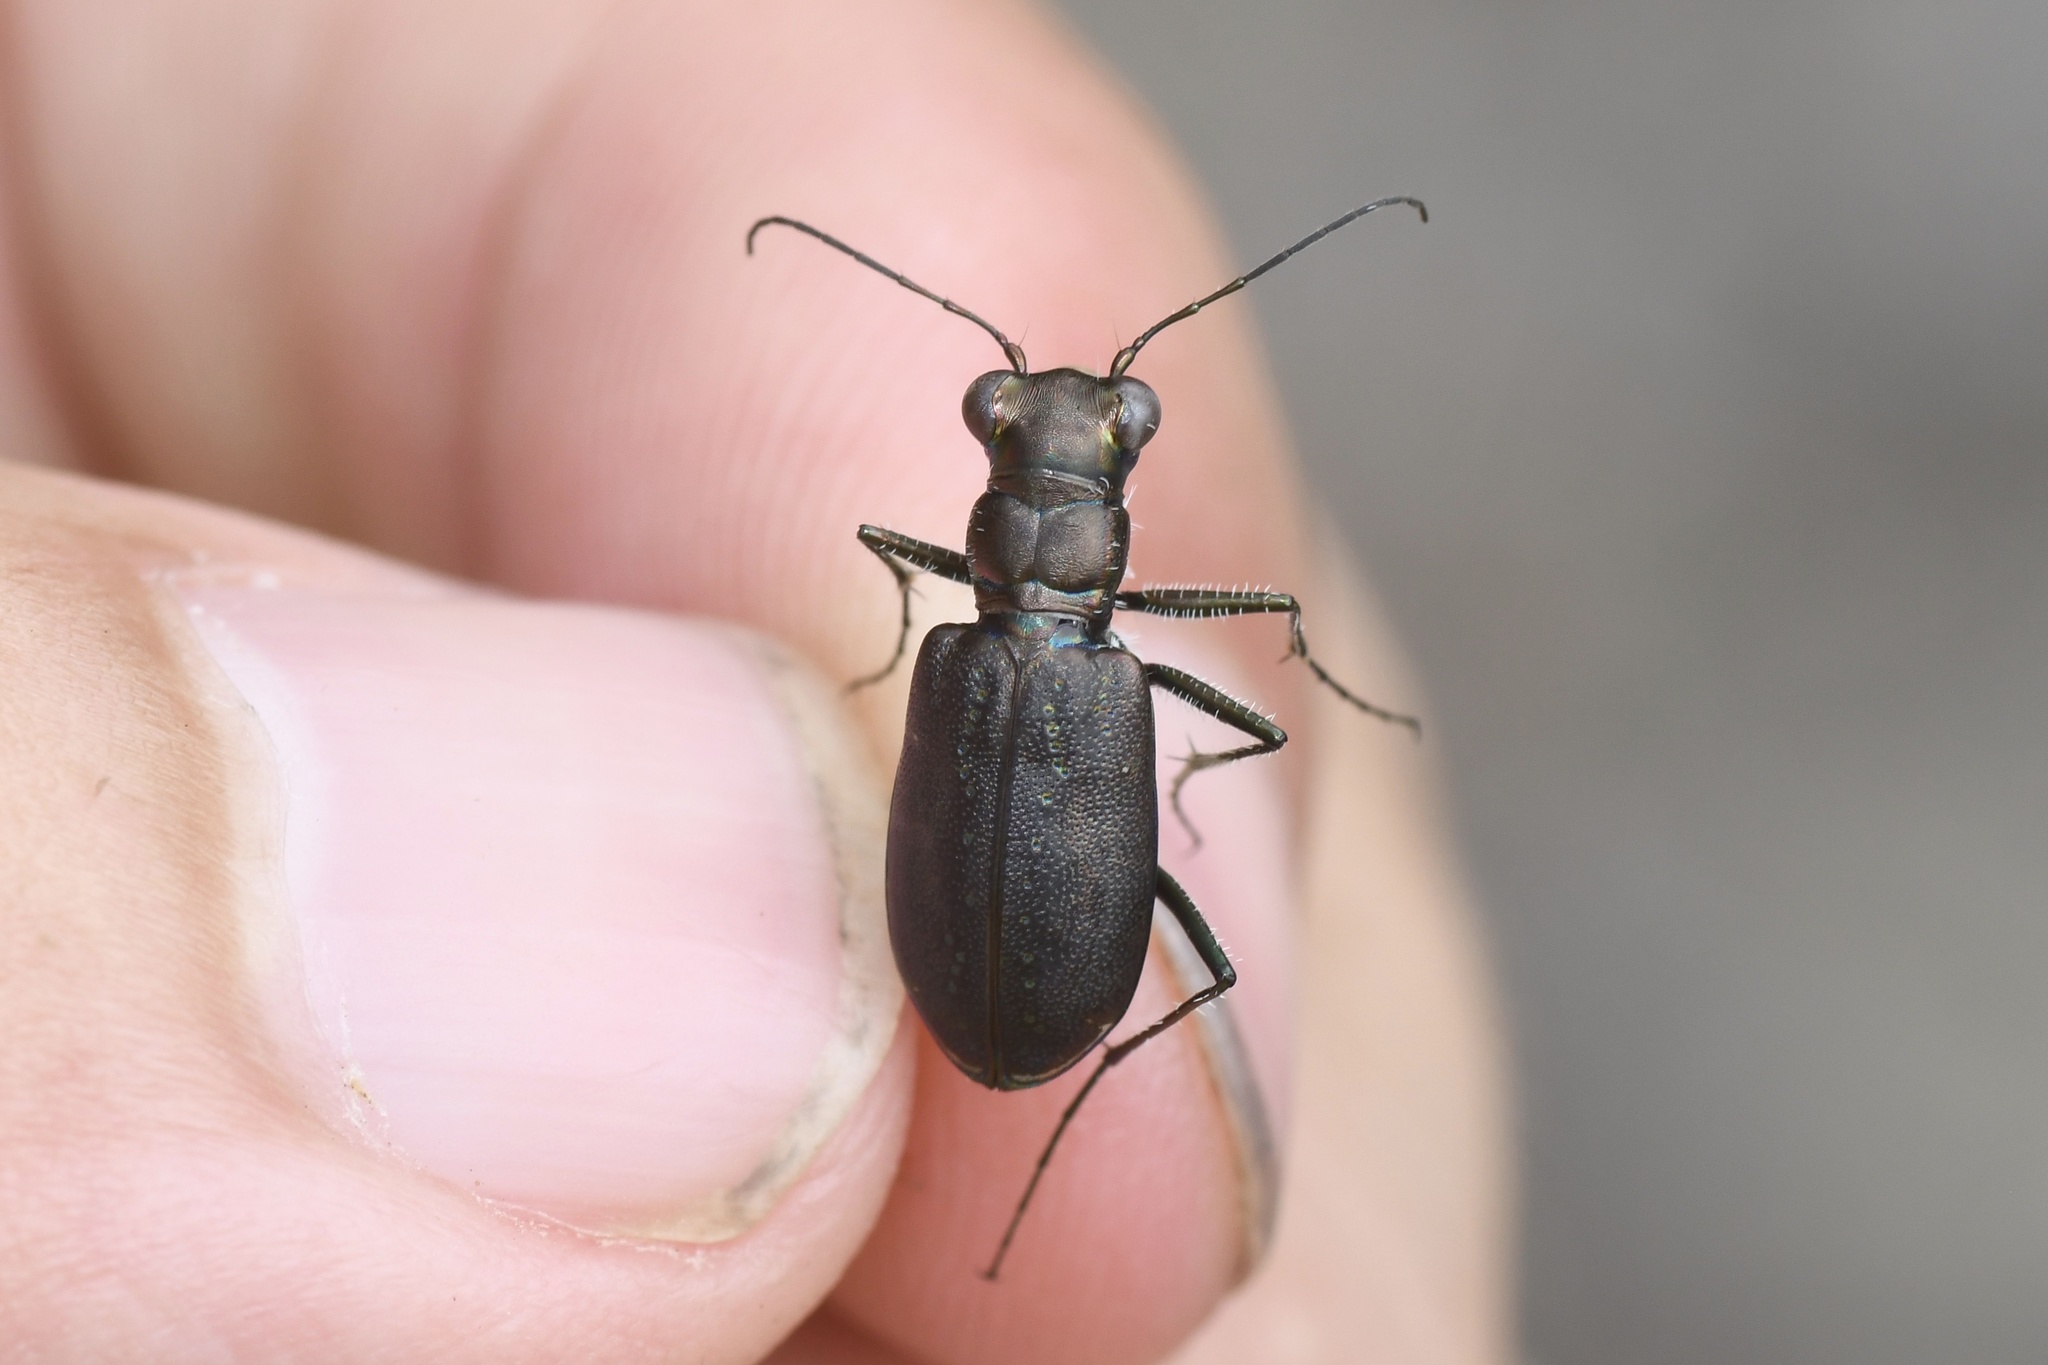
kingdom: Animalia
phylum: Arthropoda
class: Insecta
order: Coleoptera
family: Carabidae
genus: Cicindela
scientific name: Cicindela punctulata
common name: Punctured tiger beetle
